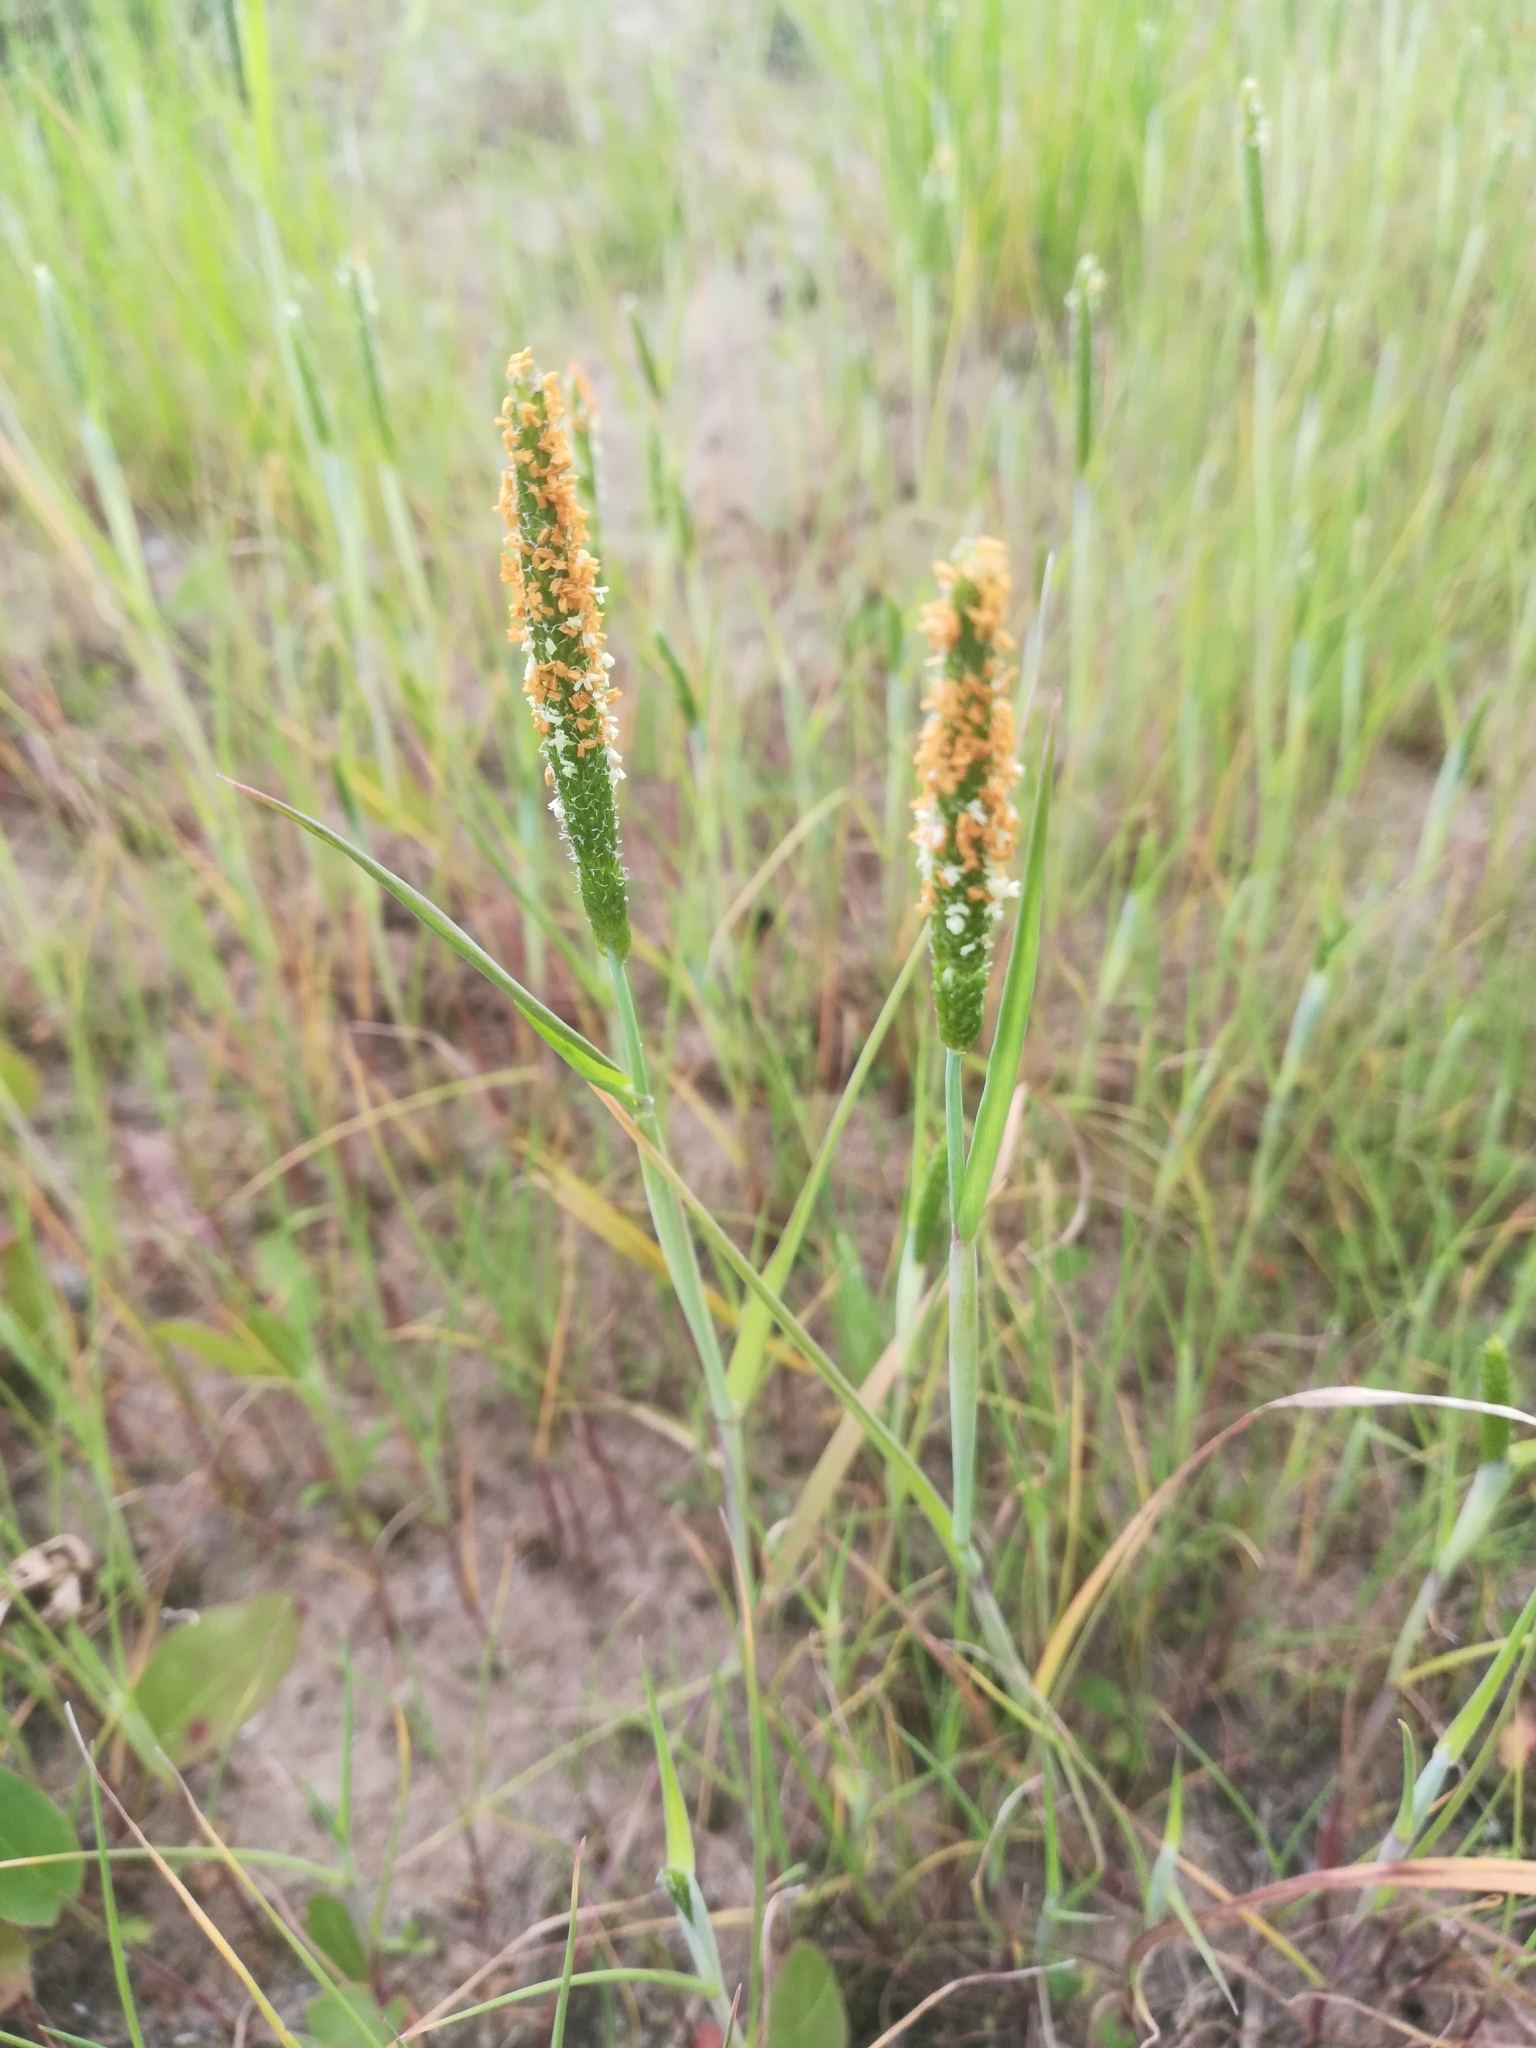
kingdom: Plantae
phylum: Tracheophyta
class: Liliopsida
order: Poales
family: Poaceae
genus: Alopecurus
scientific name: Alopecurus aequalis
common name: Orange foxtail
